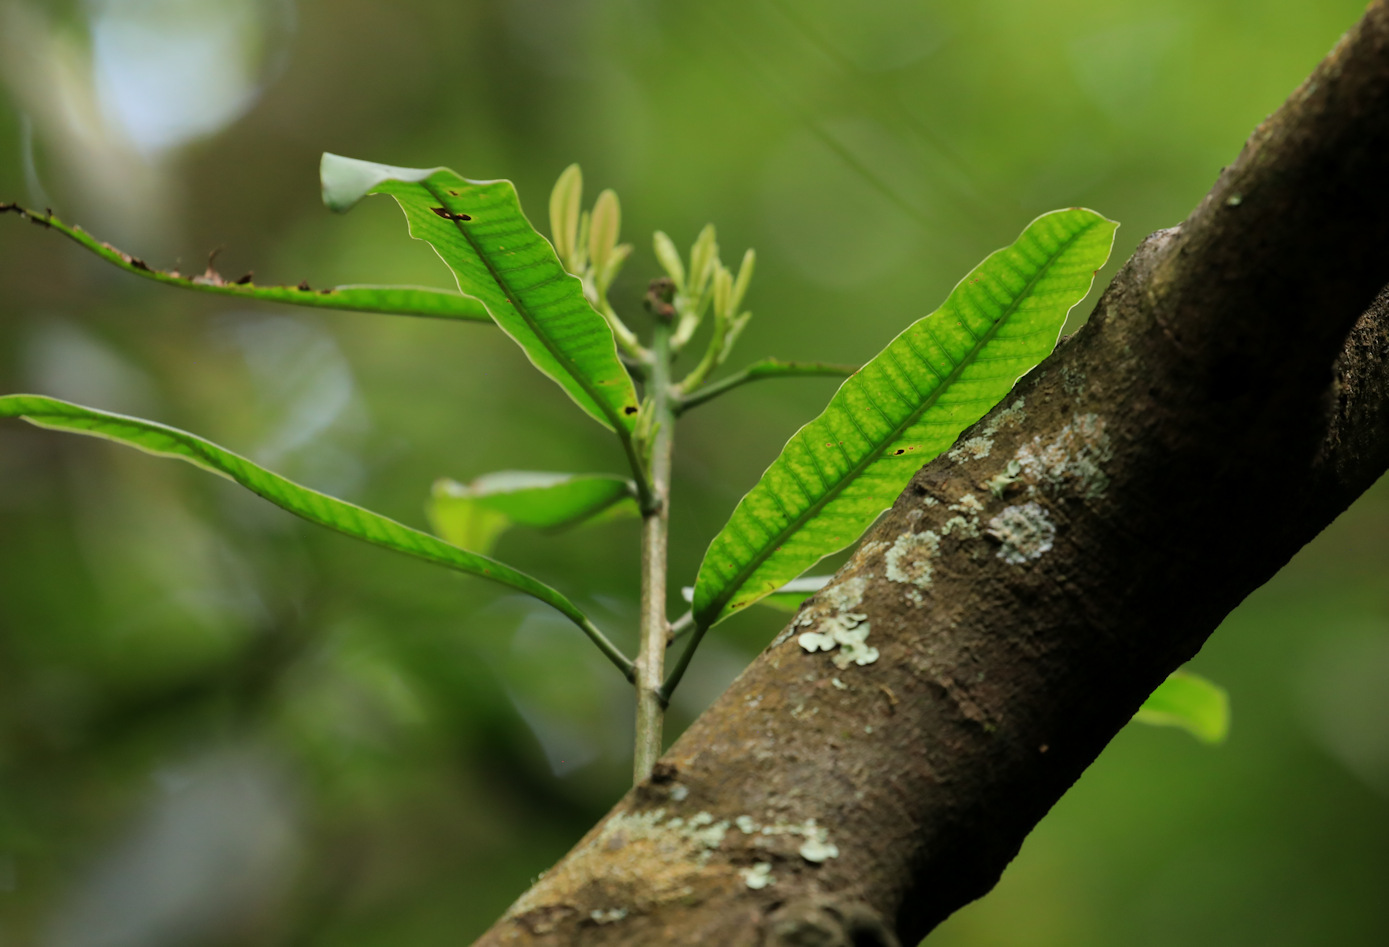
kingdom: Plantae
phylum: Tracheophyta
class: Magnoliopsida
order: Sapindales
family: Anacardiaceae
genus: Protorhus
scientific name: Protorhus longifolia
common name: Red-beech
